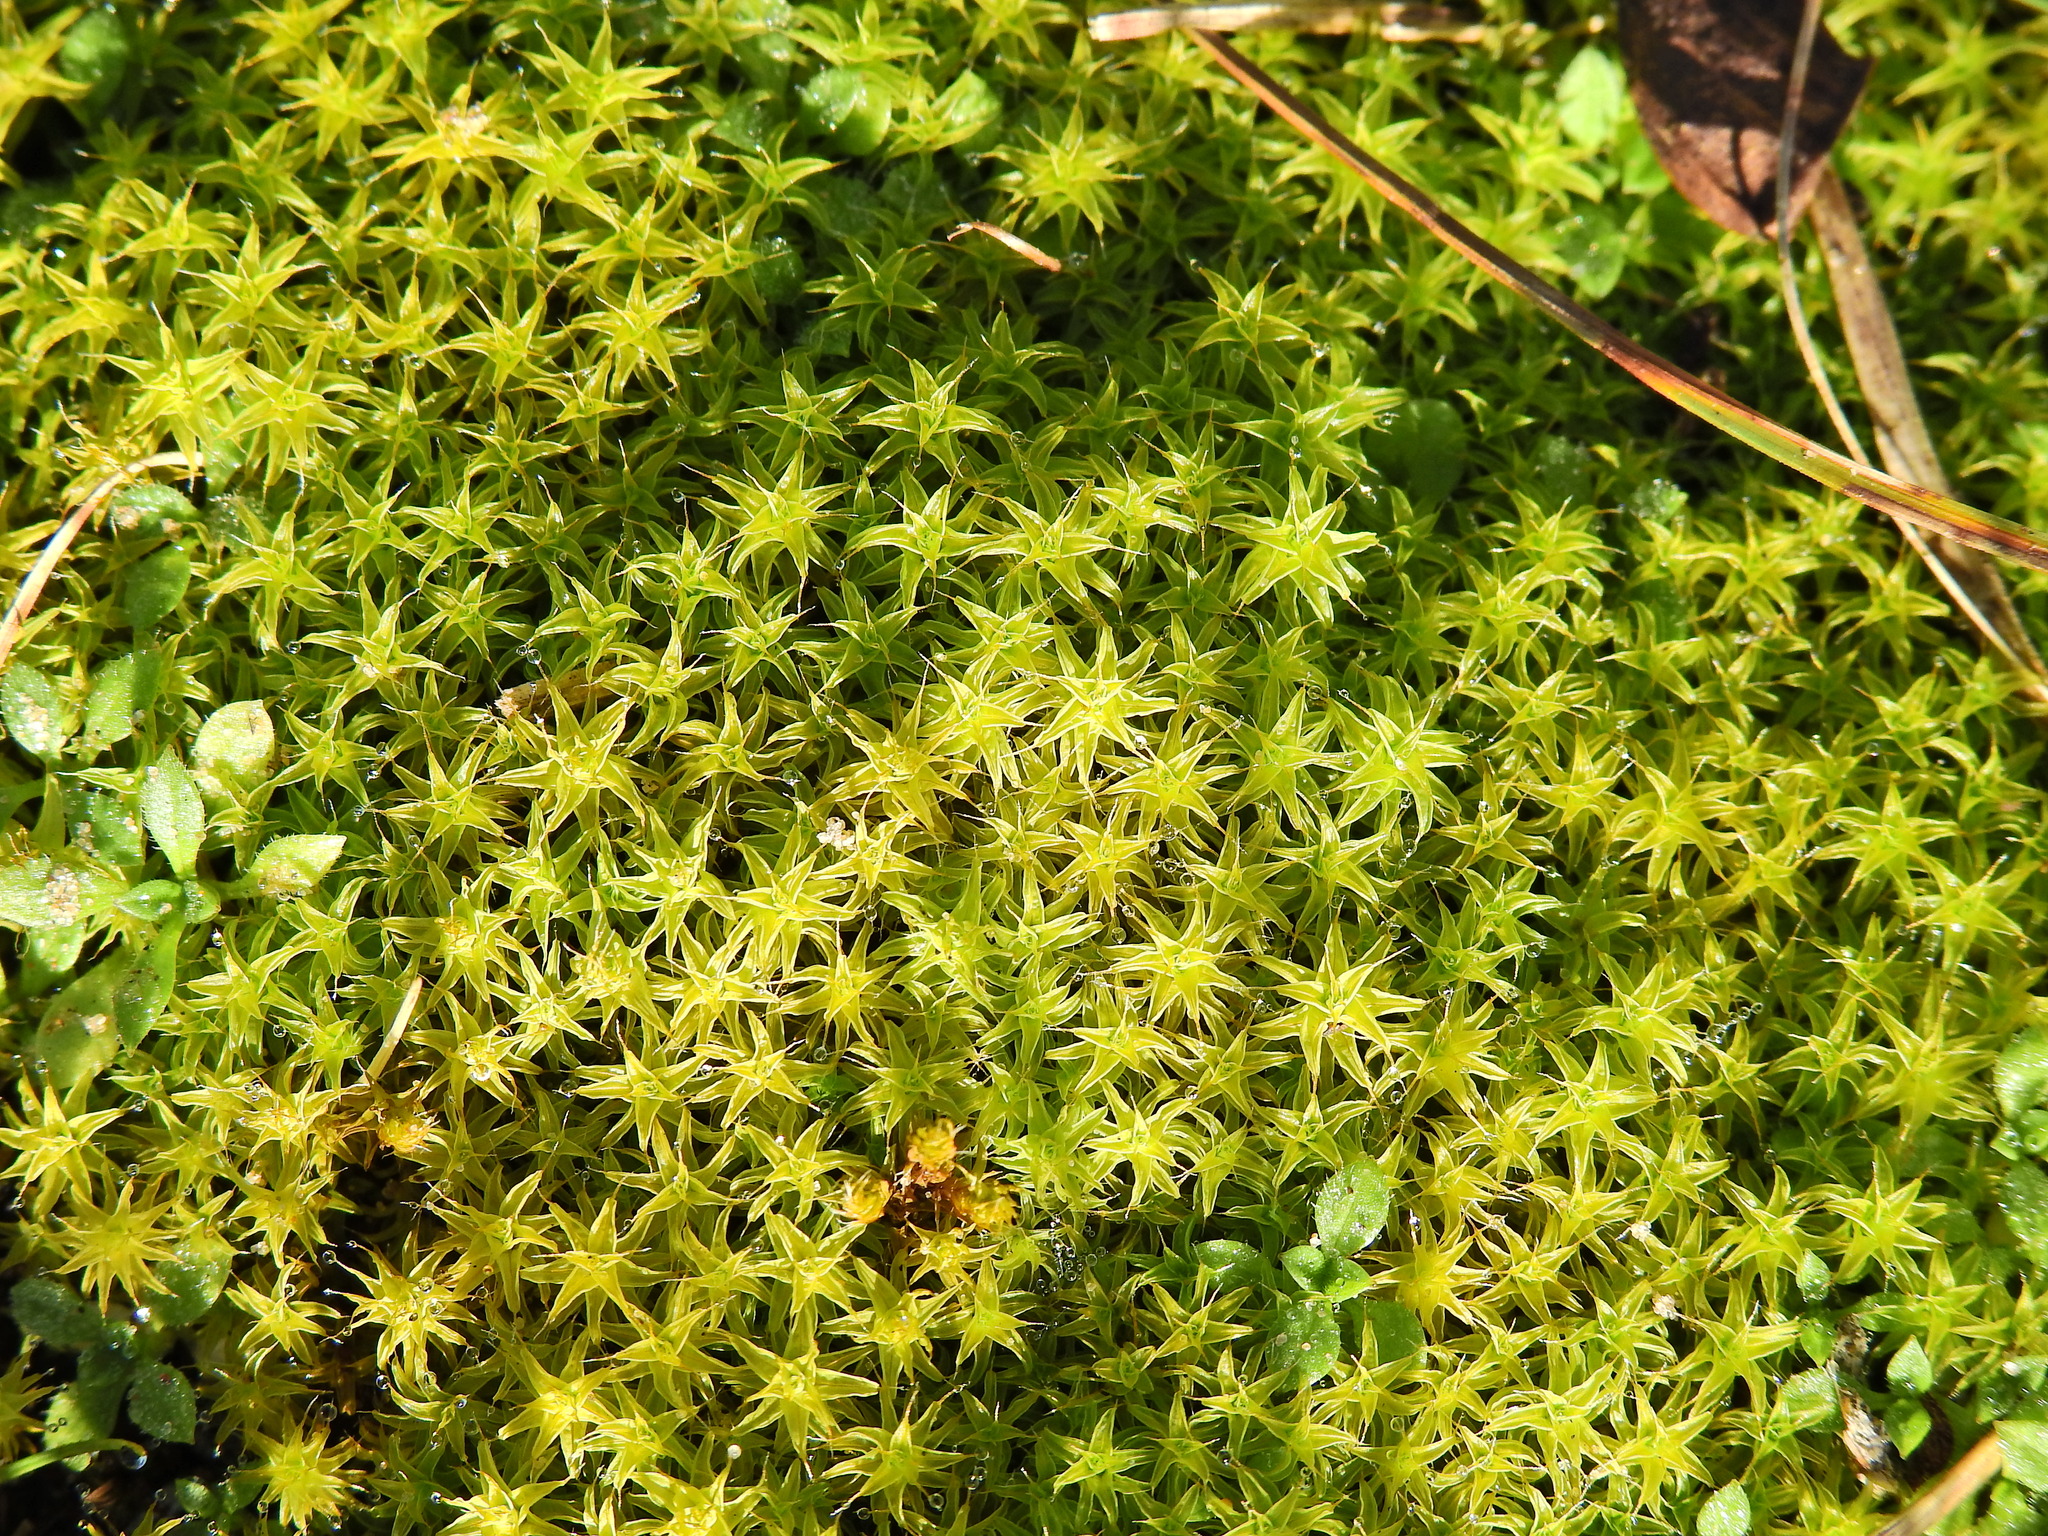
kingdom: Plantae
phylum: Bryophyta
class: Bryopsida
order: Pottiales
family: Pottiaceae
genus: Syntrichia
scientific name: Syntrichia ruralis
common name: Sidewalk screw moss
